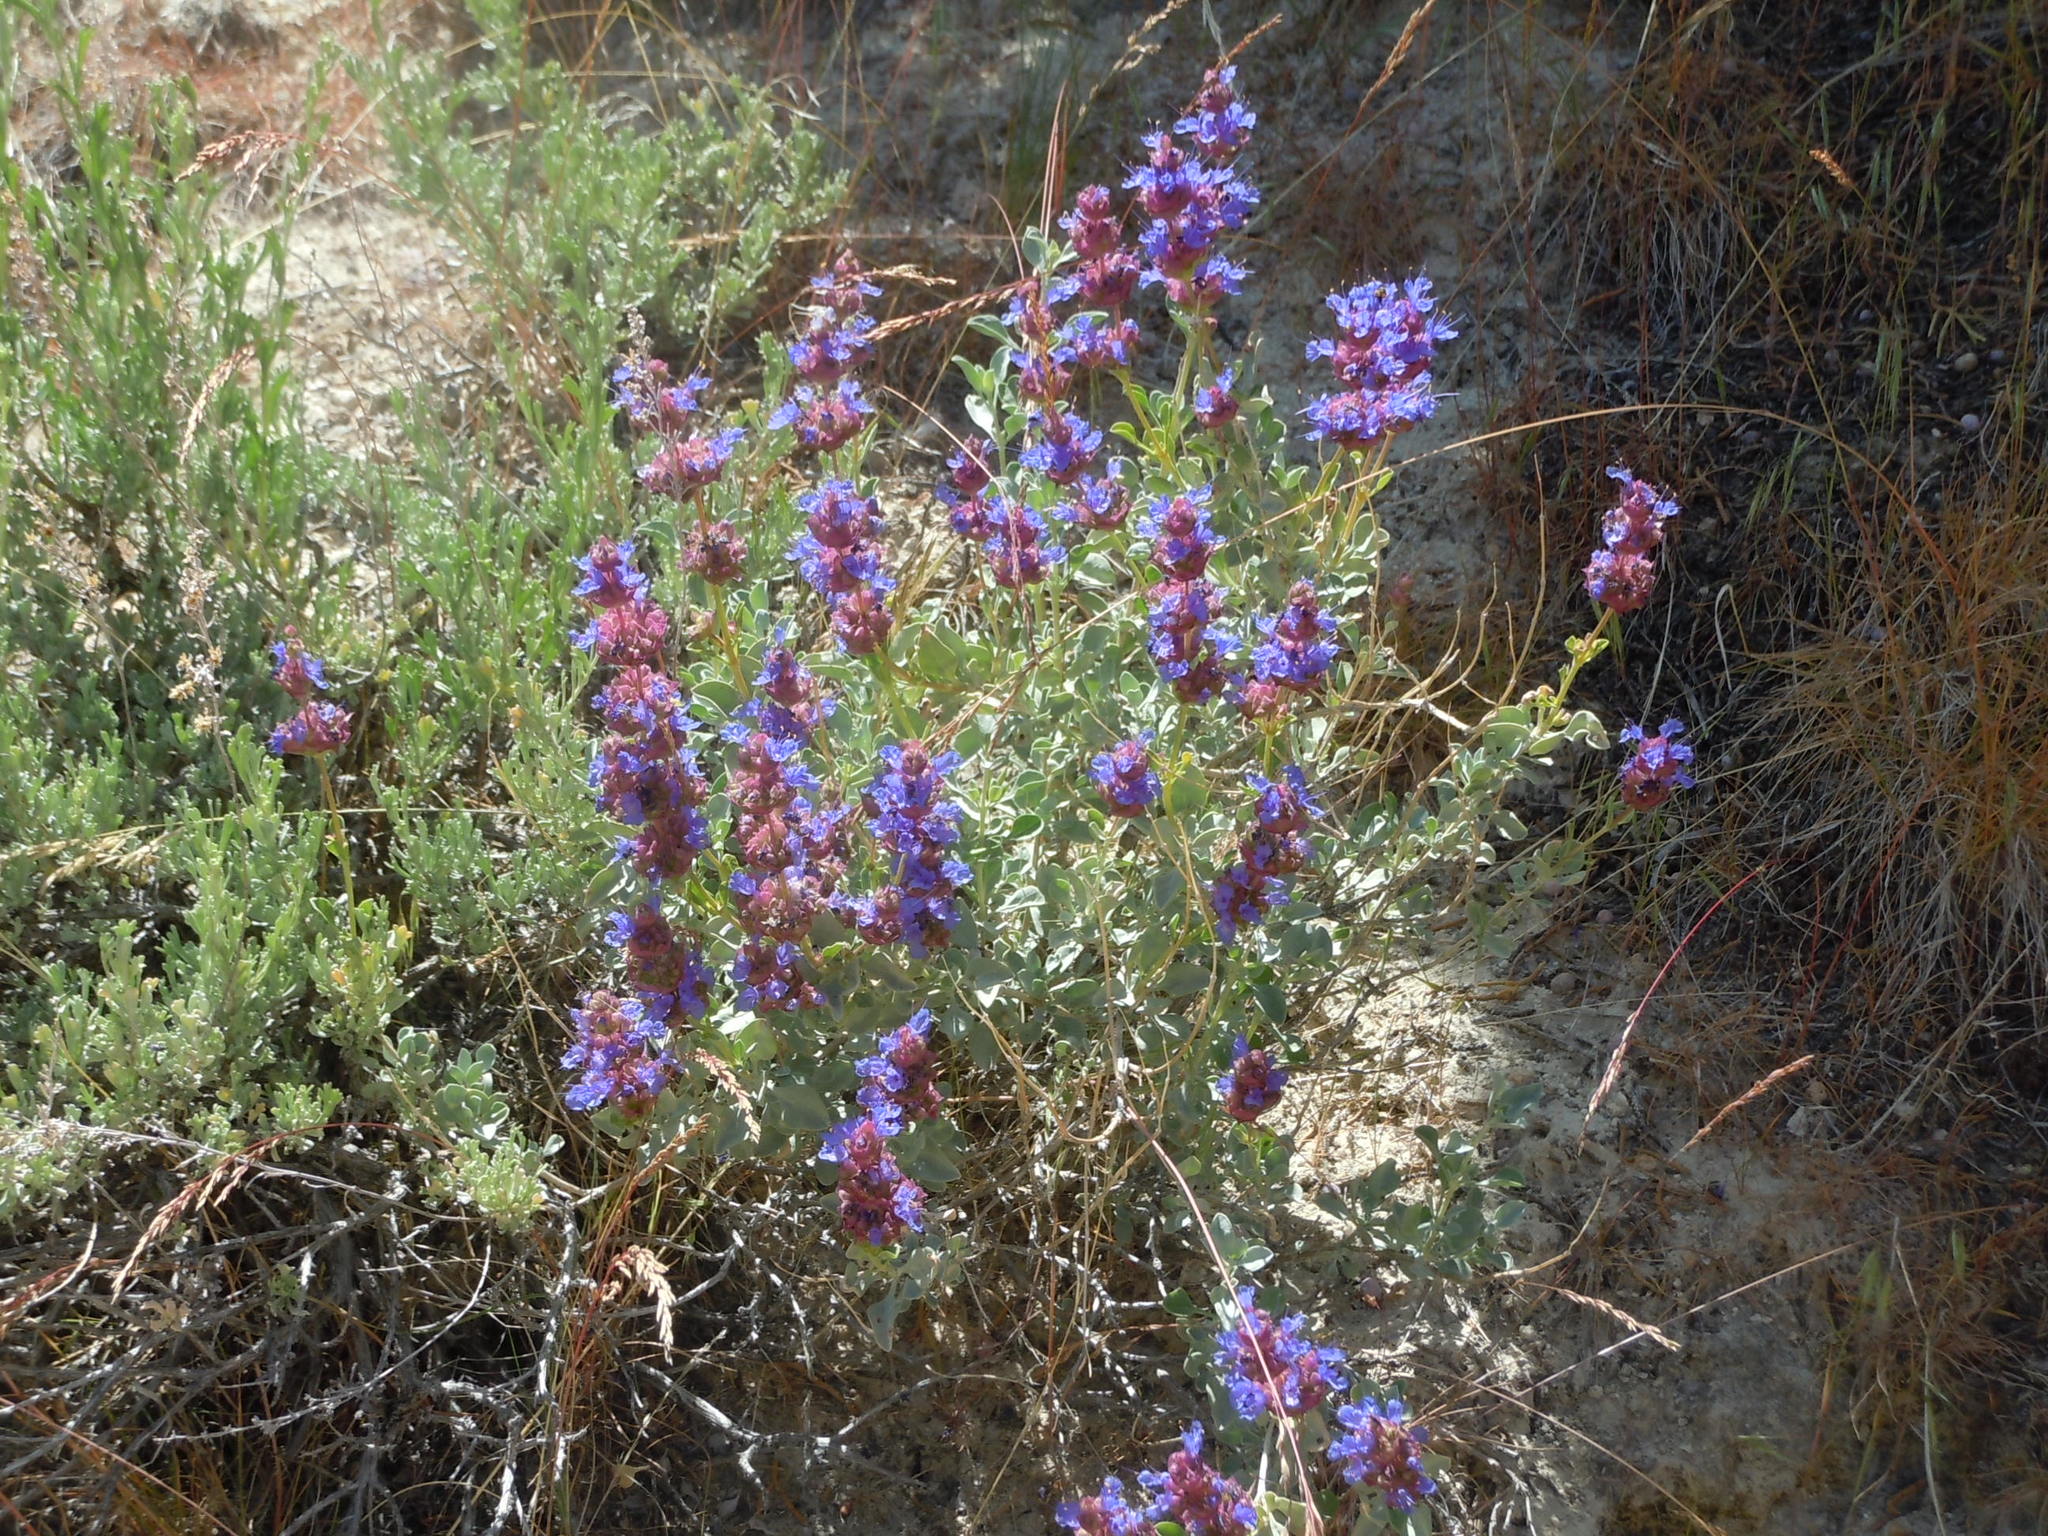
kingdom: Plantae
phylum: Tracheophyta
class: Magnoliopsida
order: Lamiales
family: Lamiaceae
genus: Salvia
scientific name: Salvia dorrii
